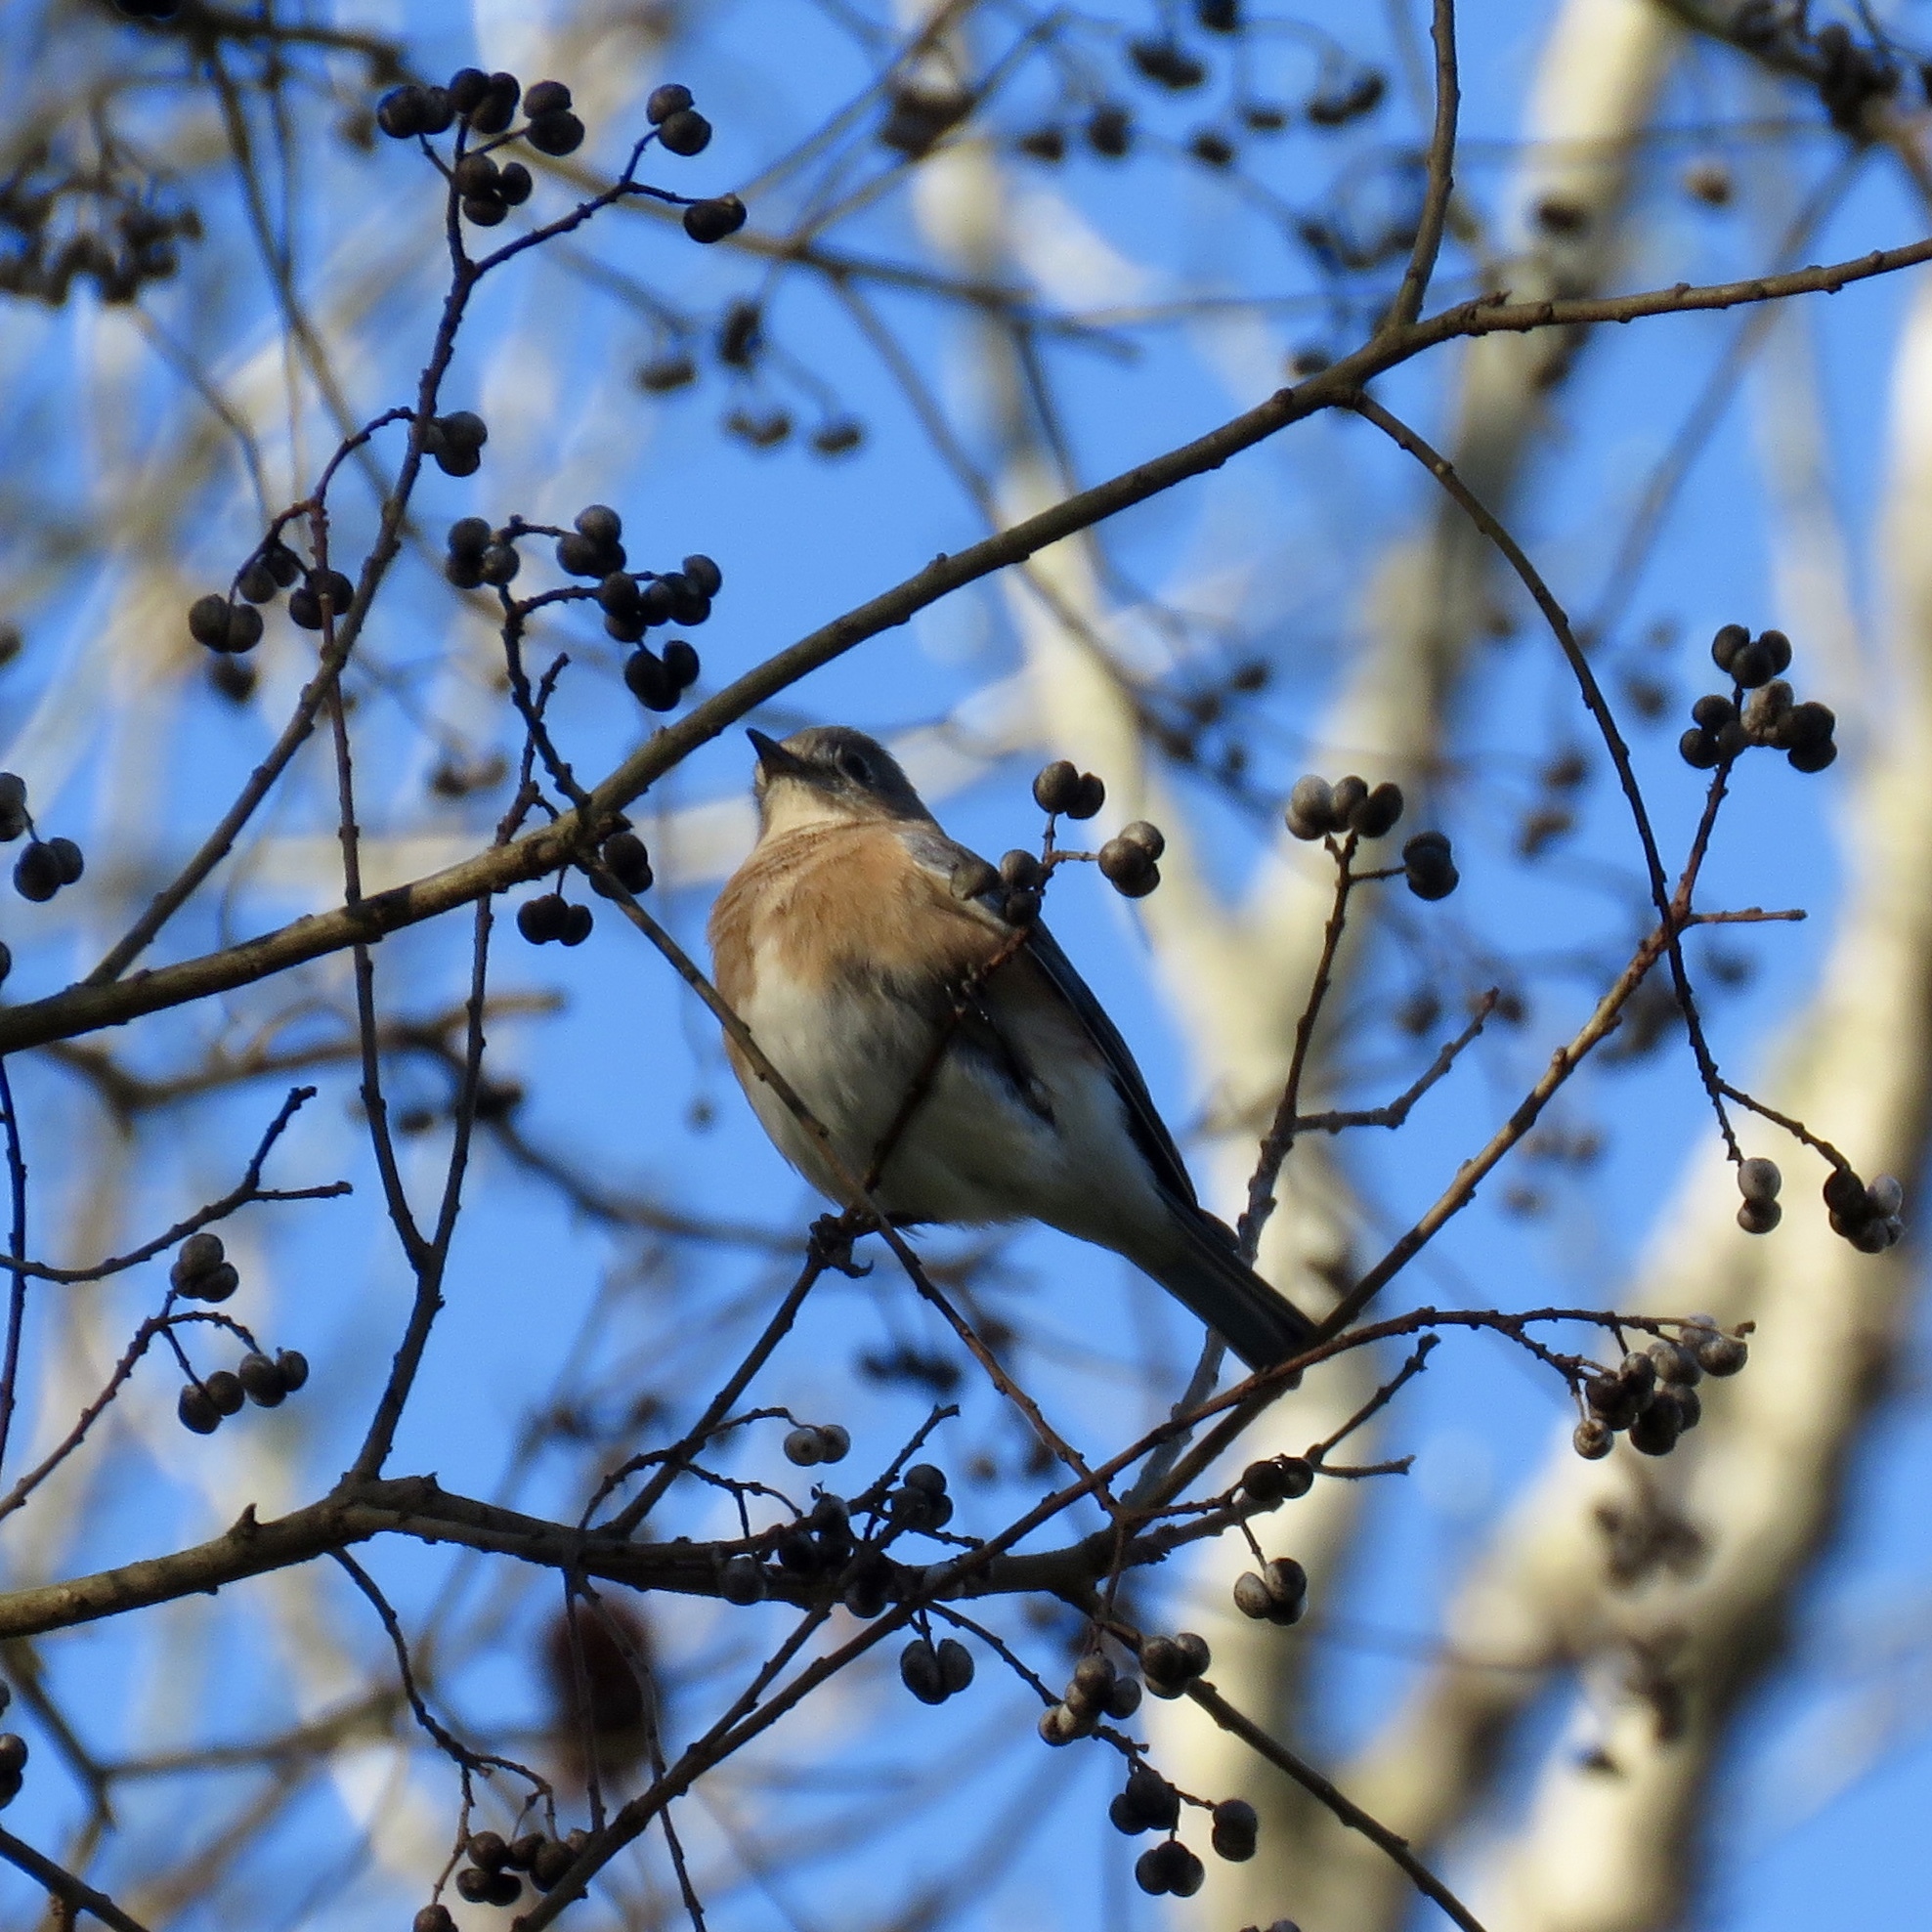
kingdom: Animalia
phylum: Chordata
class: Aves
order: Passeriformes
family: Turdidae
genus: Sialia
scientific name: Sialia sialis
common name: Eastern bluebird
